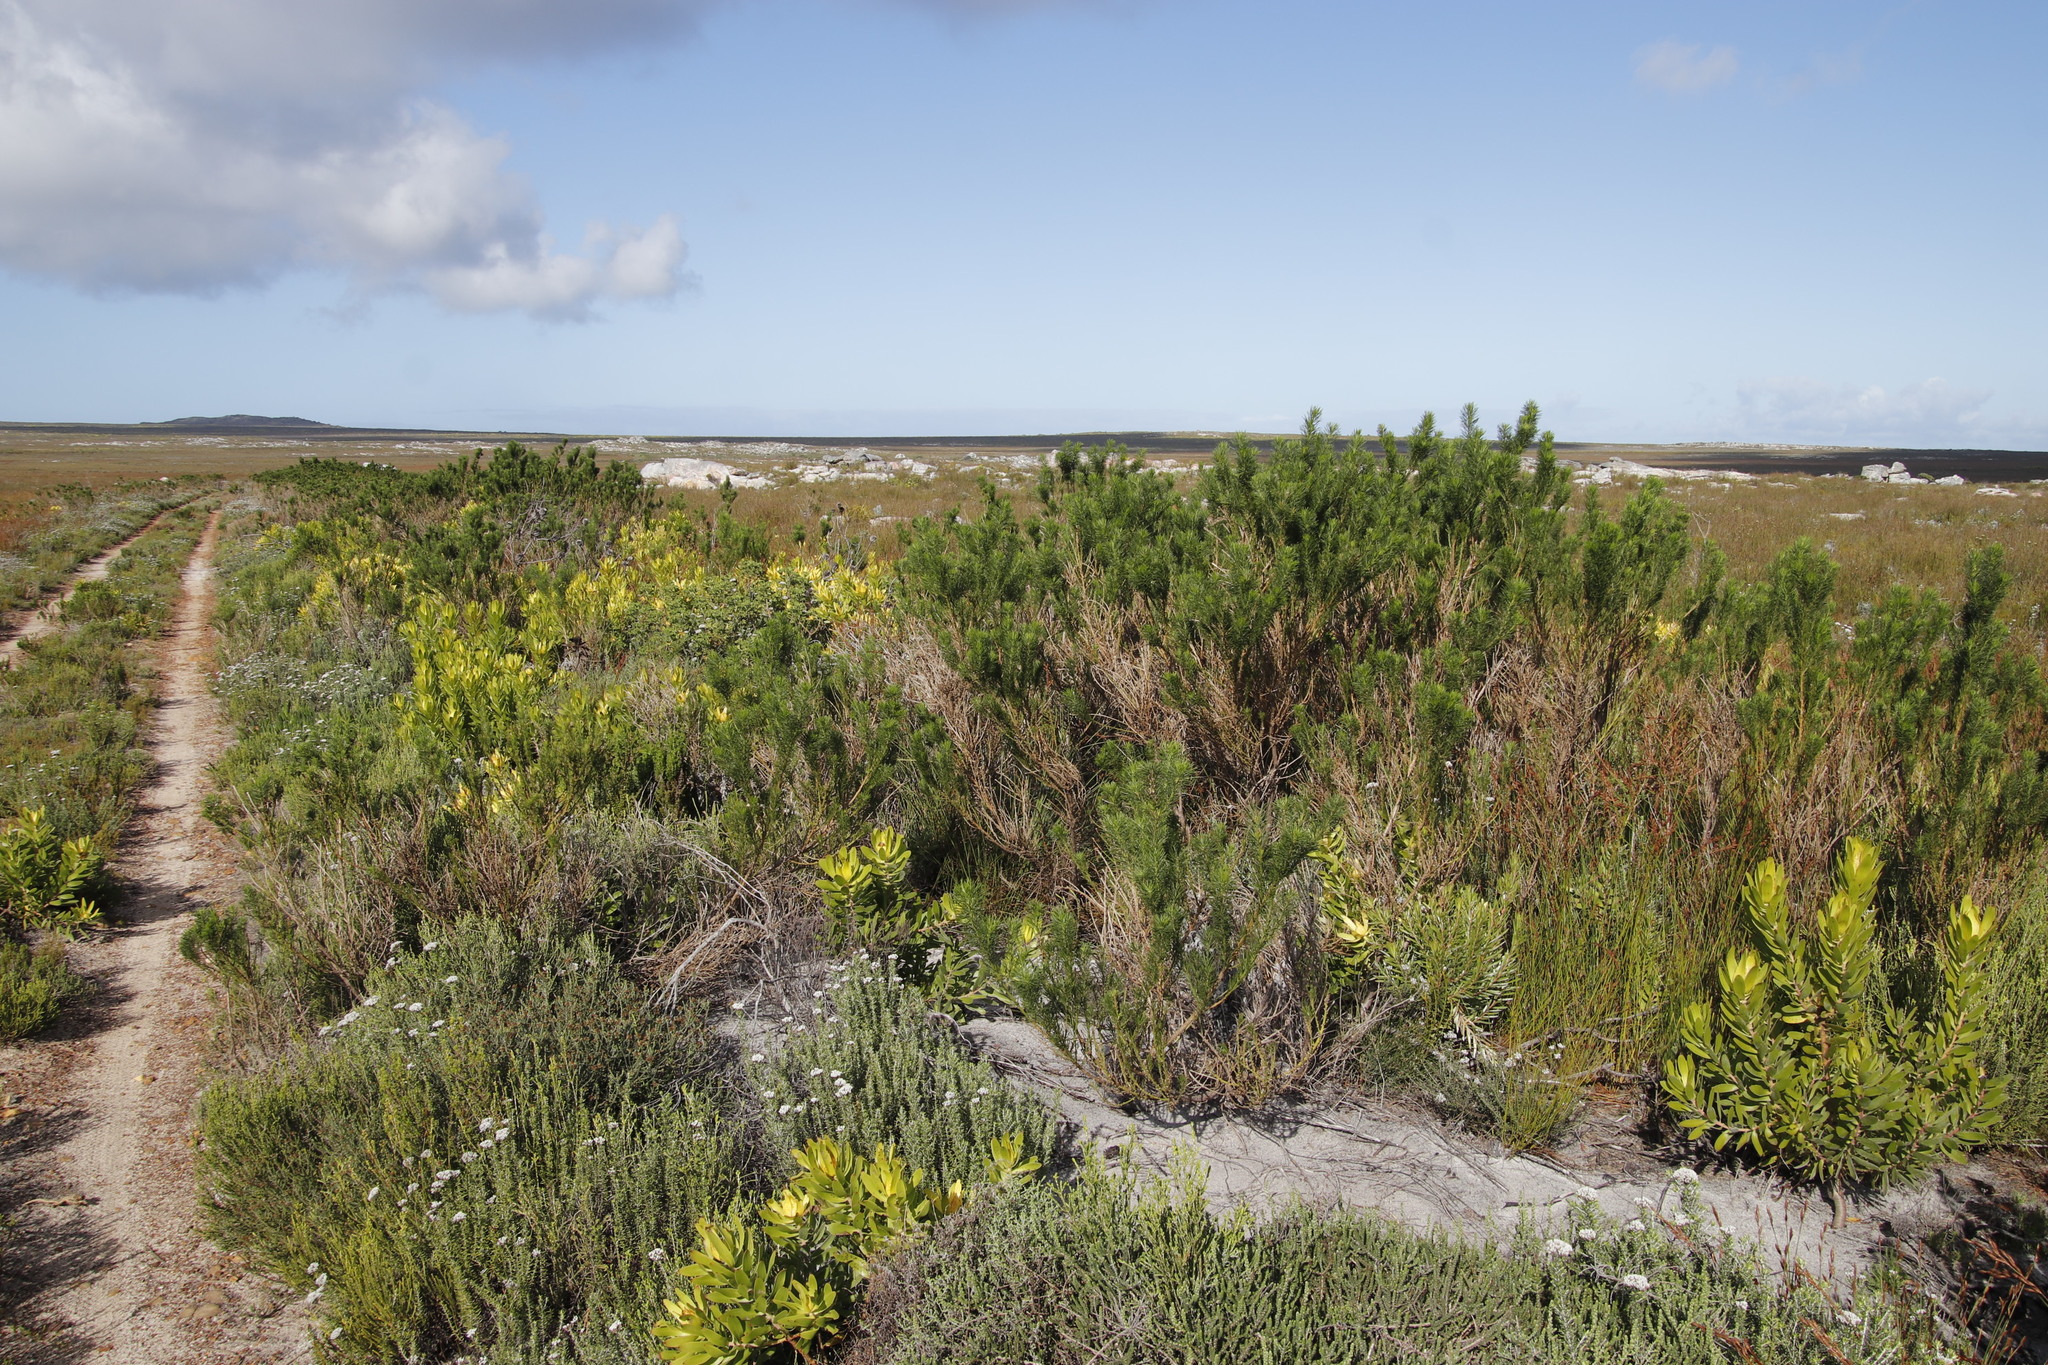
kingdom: Plantae
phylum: Tracheophyta
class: Magnoliopsida
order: Fabales
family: Fabaceae
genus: Psoralea
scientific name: Psoralea pinnata
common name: African scurfpea
